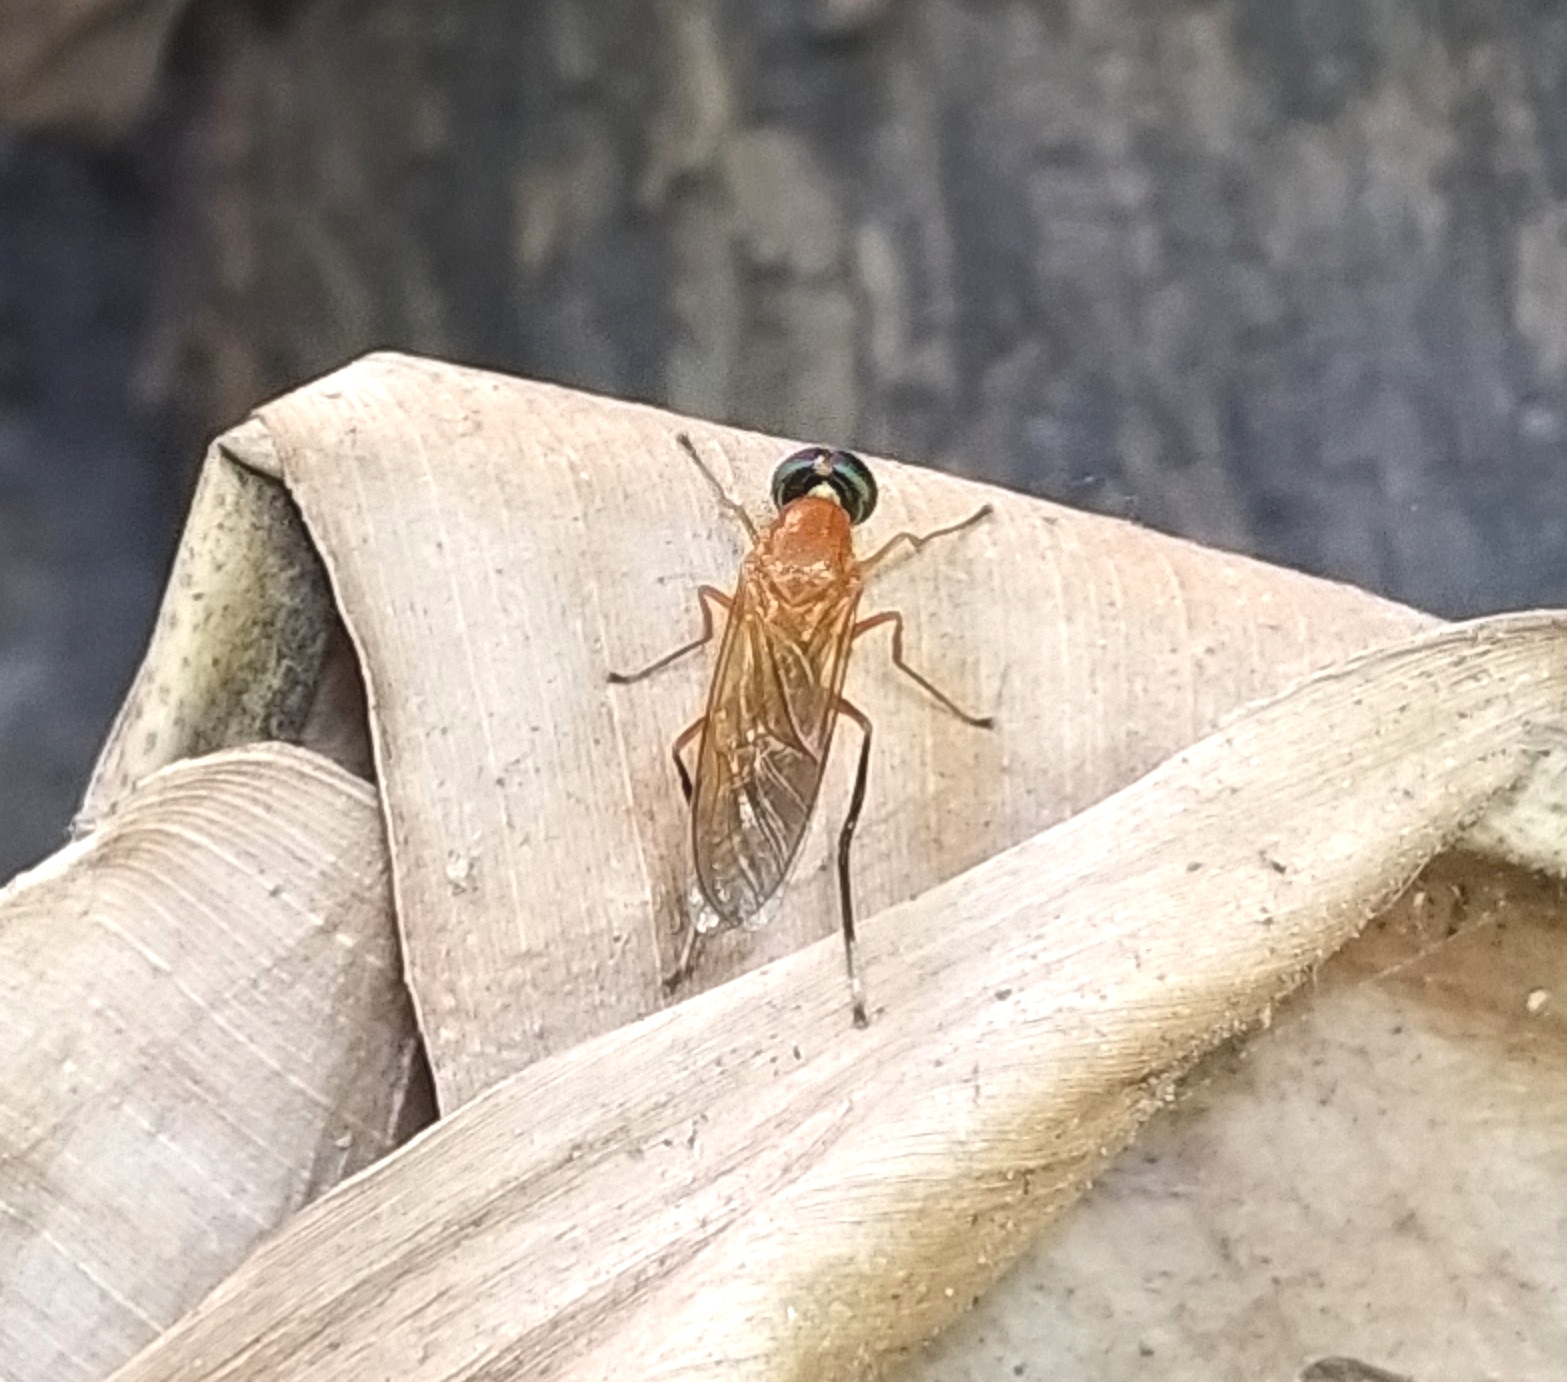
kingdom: Animalia
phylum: Arthropoda
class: Insecta
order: Diptera
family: Stratiomyidae
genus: Ptecticus
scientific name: Ptecticus testaceus
